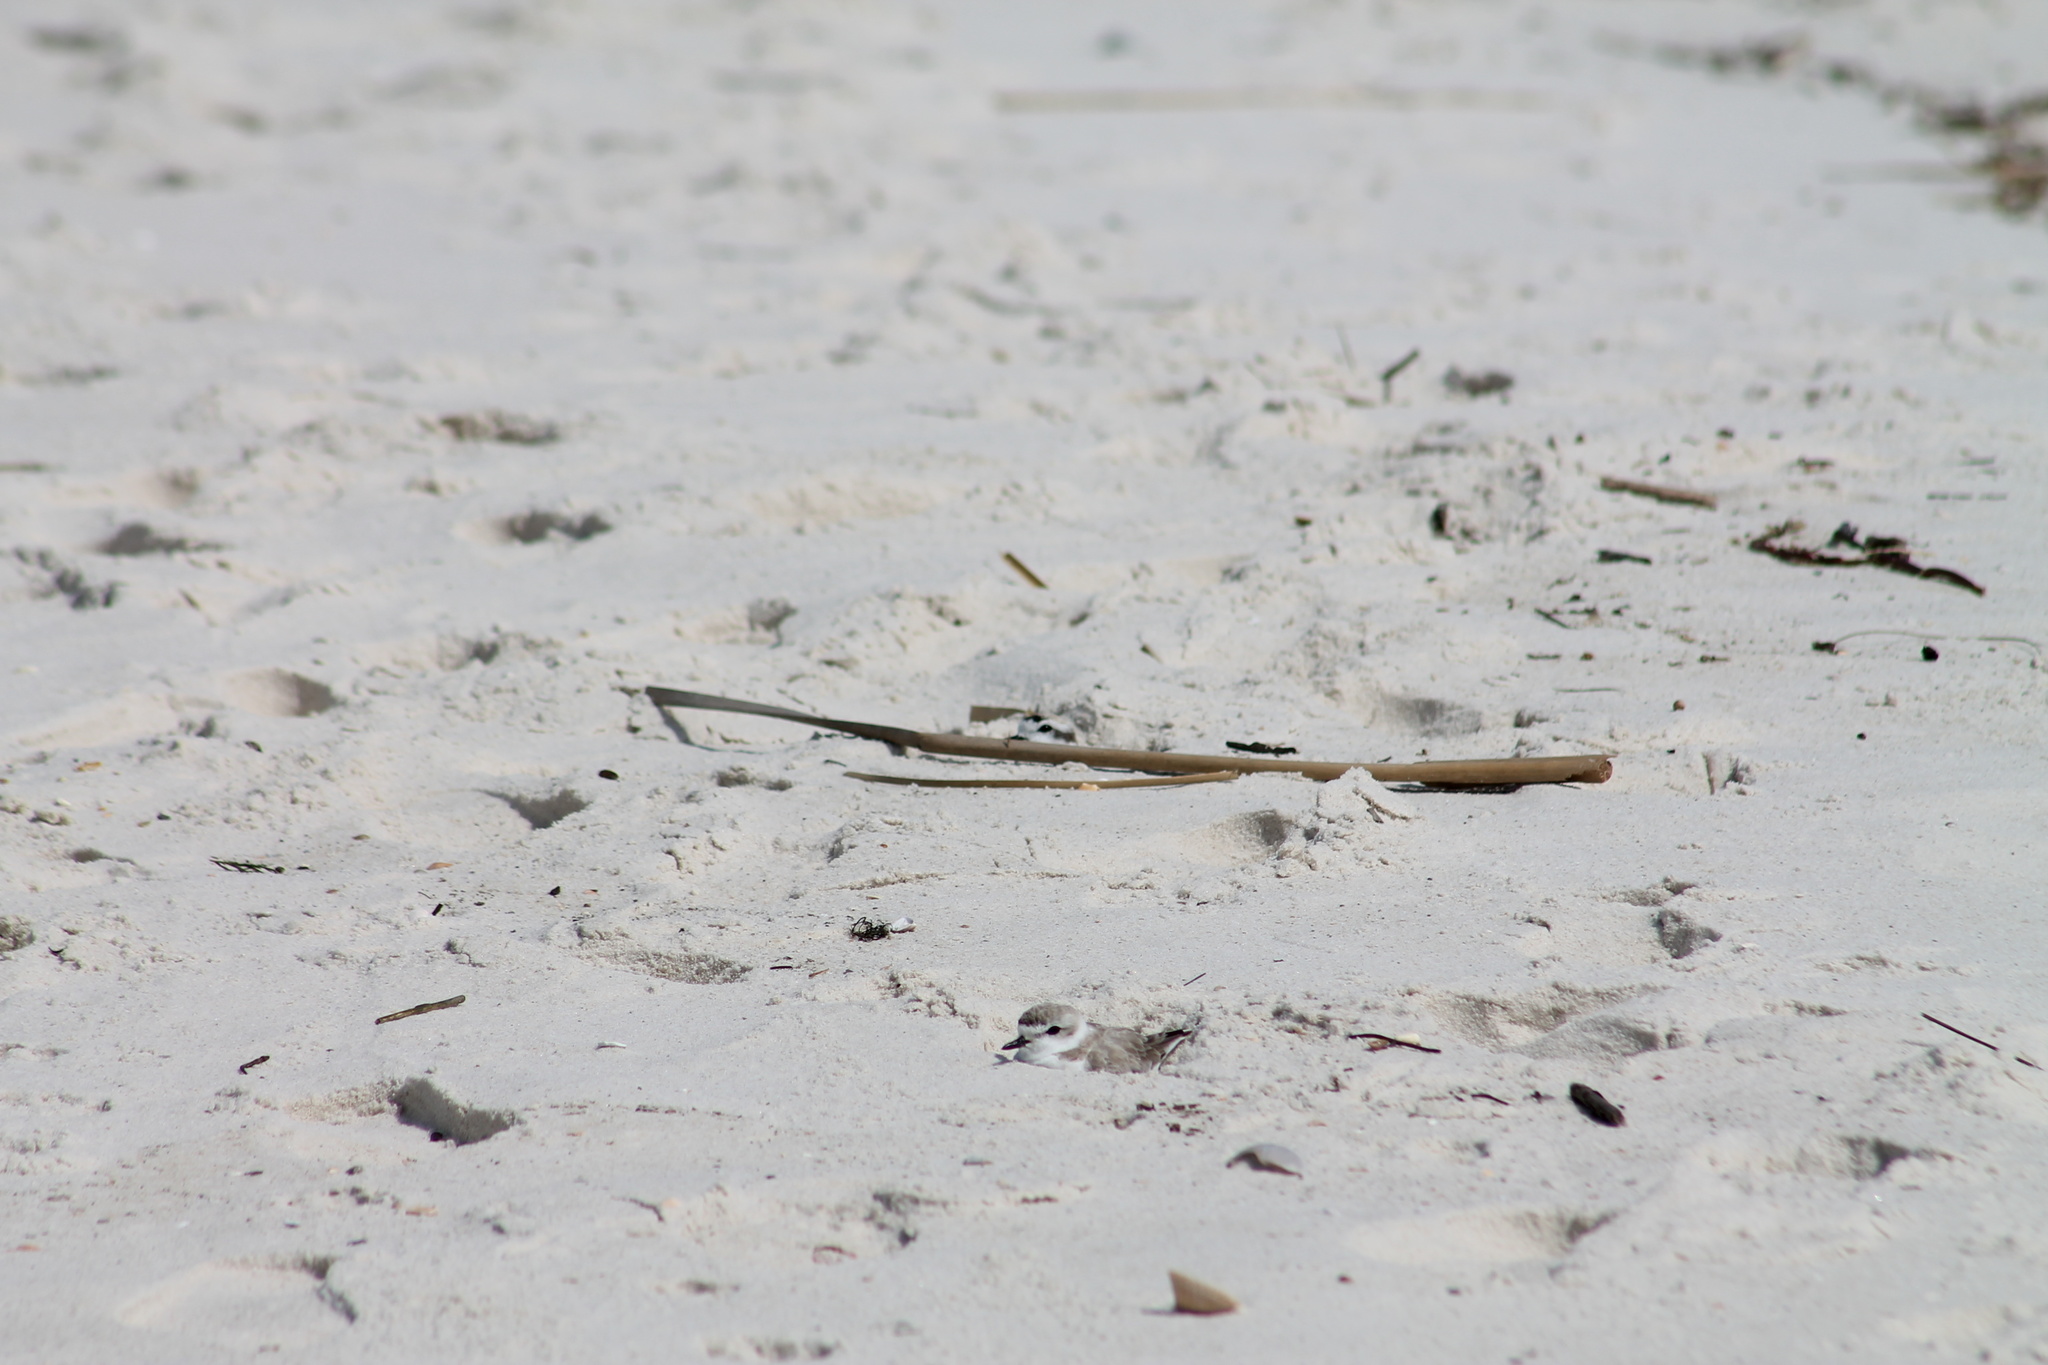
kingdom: Animalia
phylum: Chordata
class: Aves
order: Charadriiformes
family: Charadriidae
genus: Anarhynchus
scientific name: Anarhynchus
